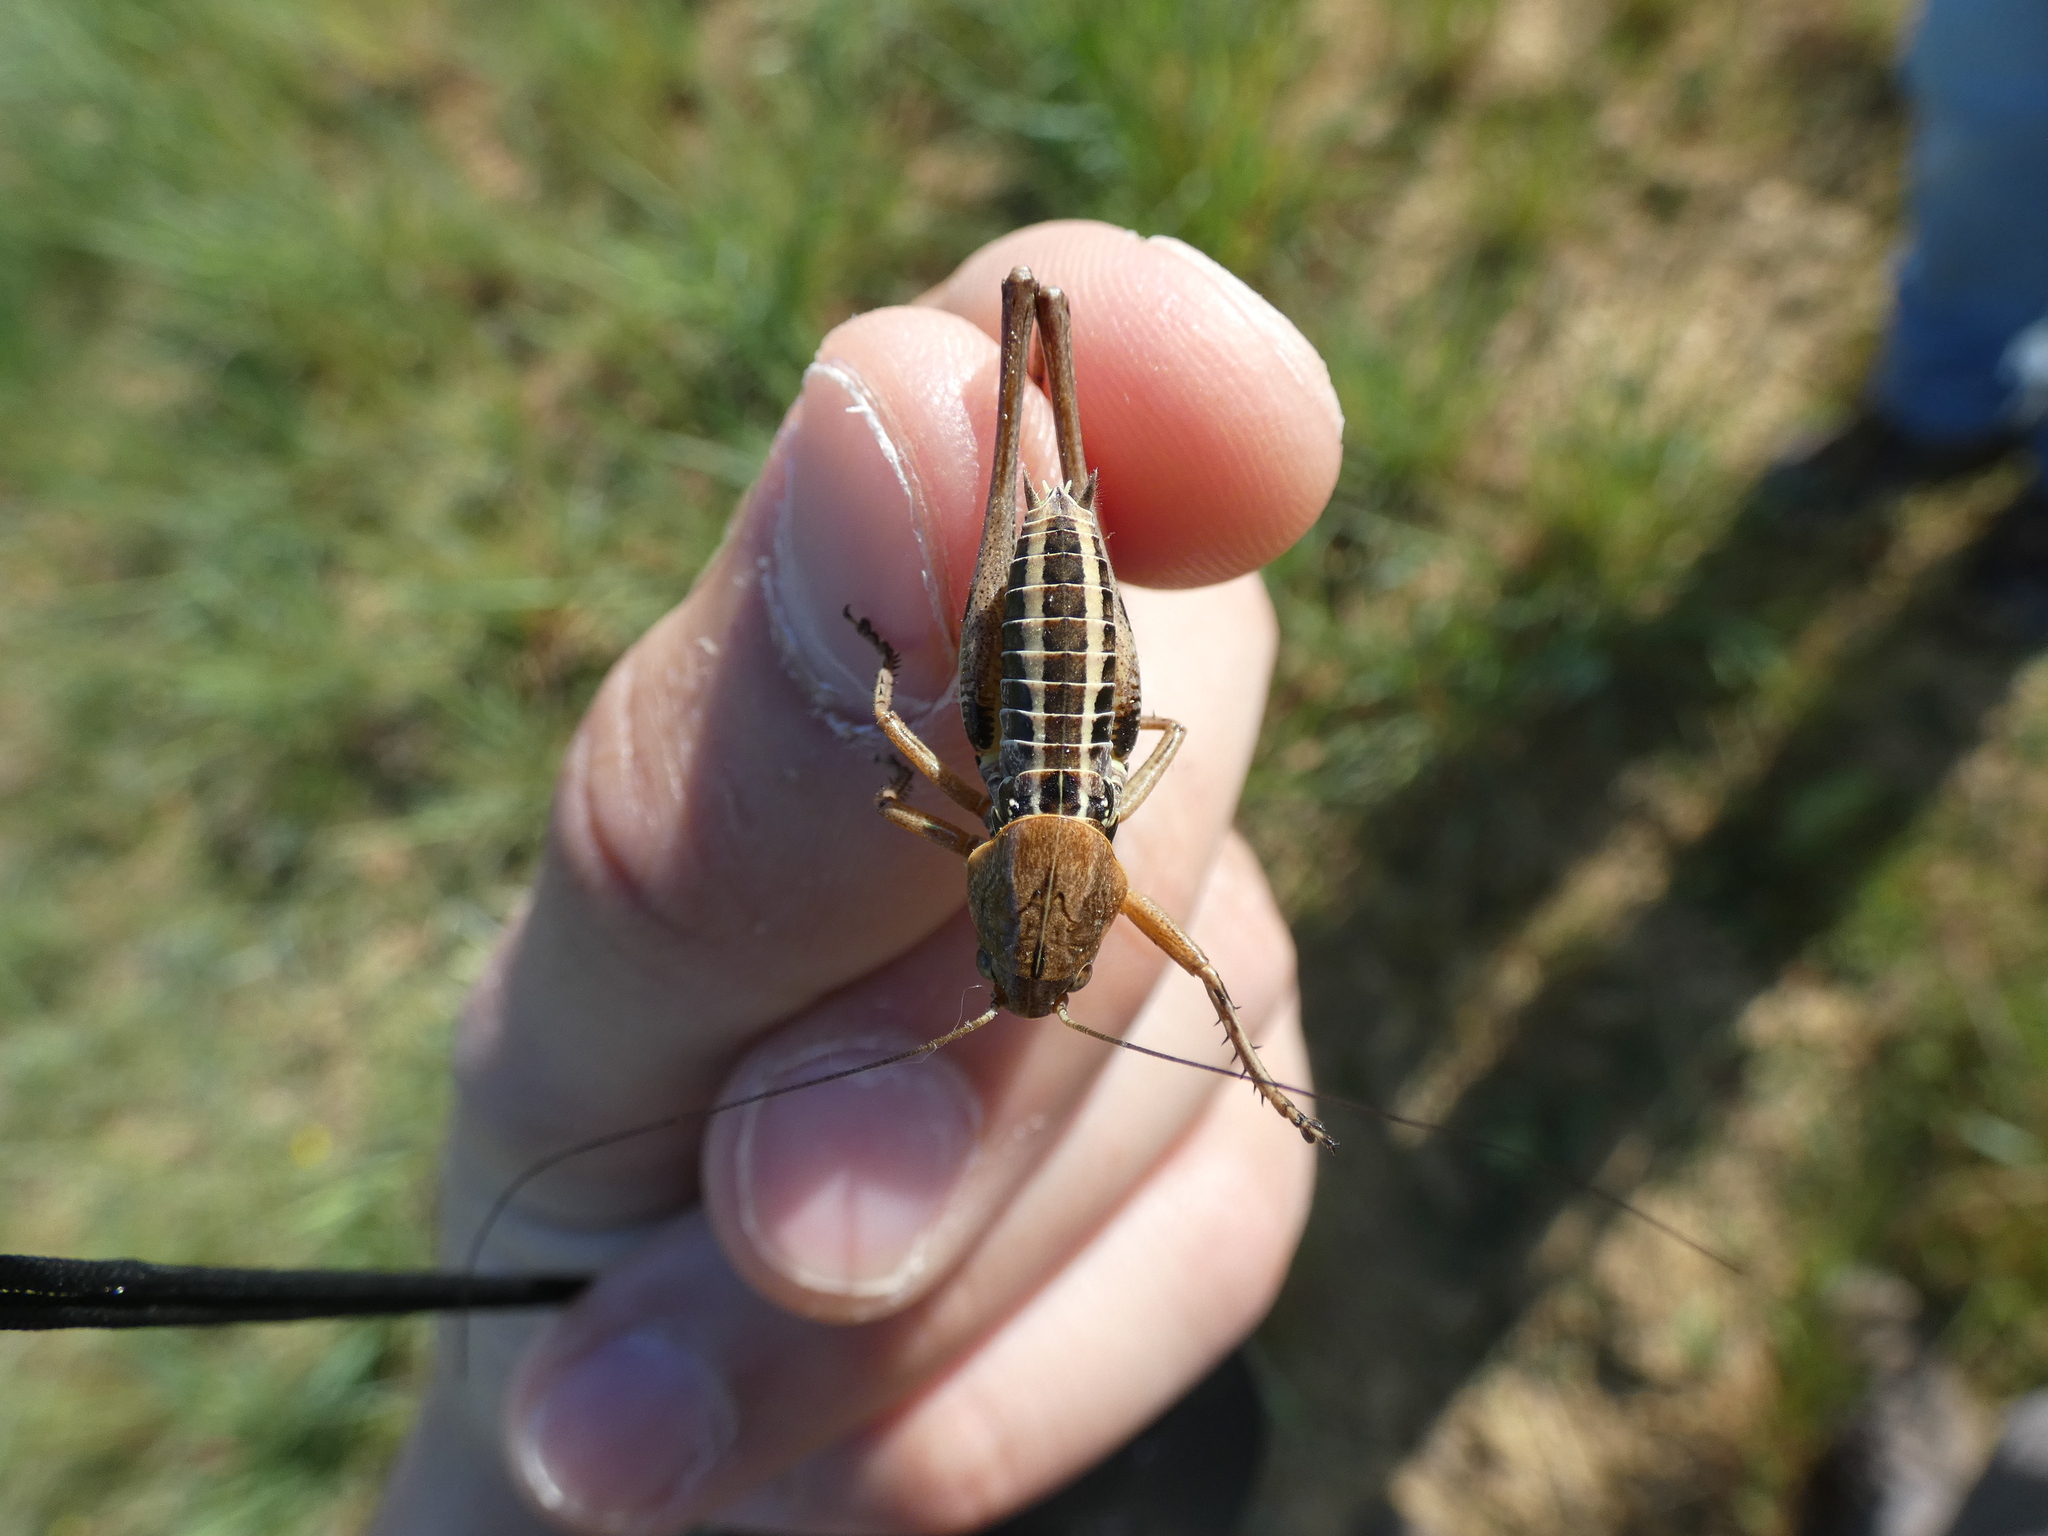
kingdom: Animalia
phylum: Arthropoda
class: Insecta
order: Orthoptera
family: Tettigoniidae
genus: Decticus
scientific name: Decticus albifrons
